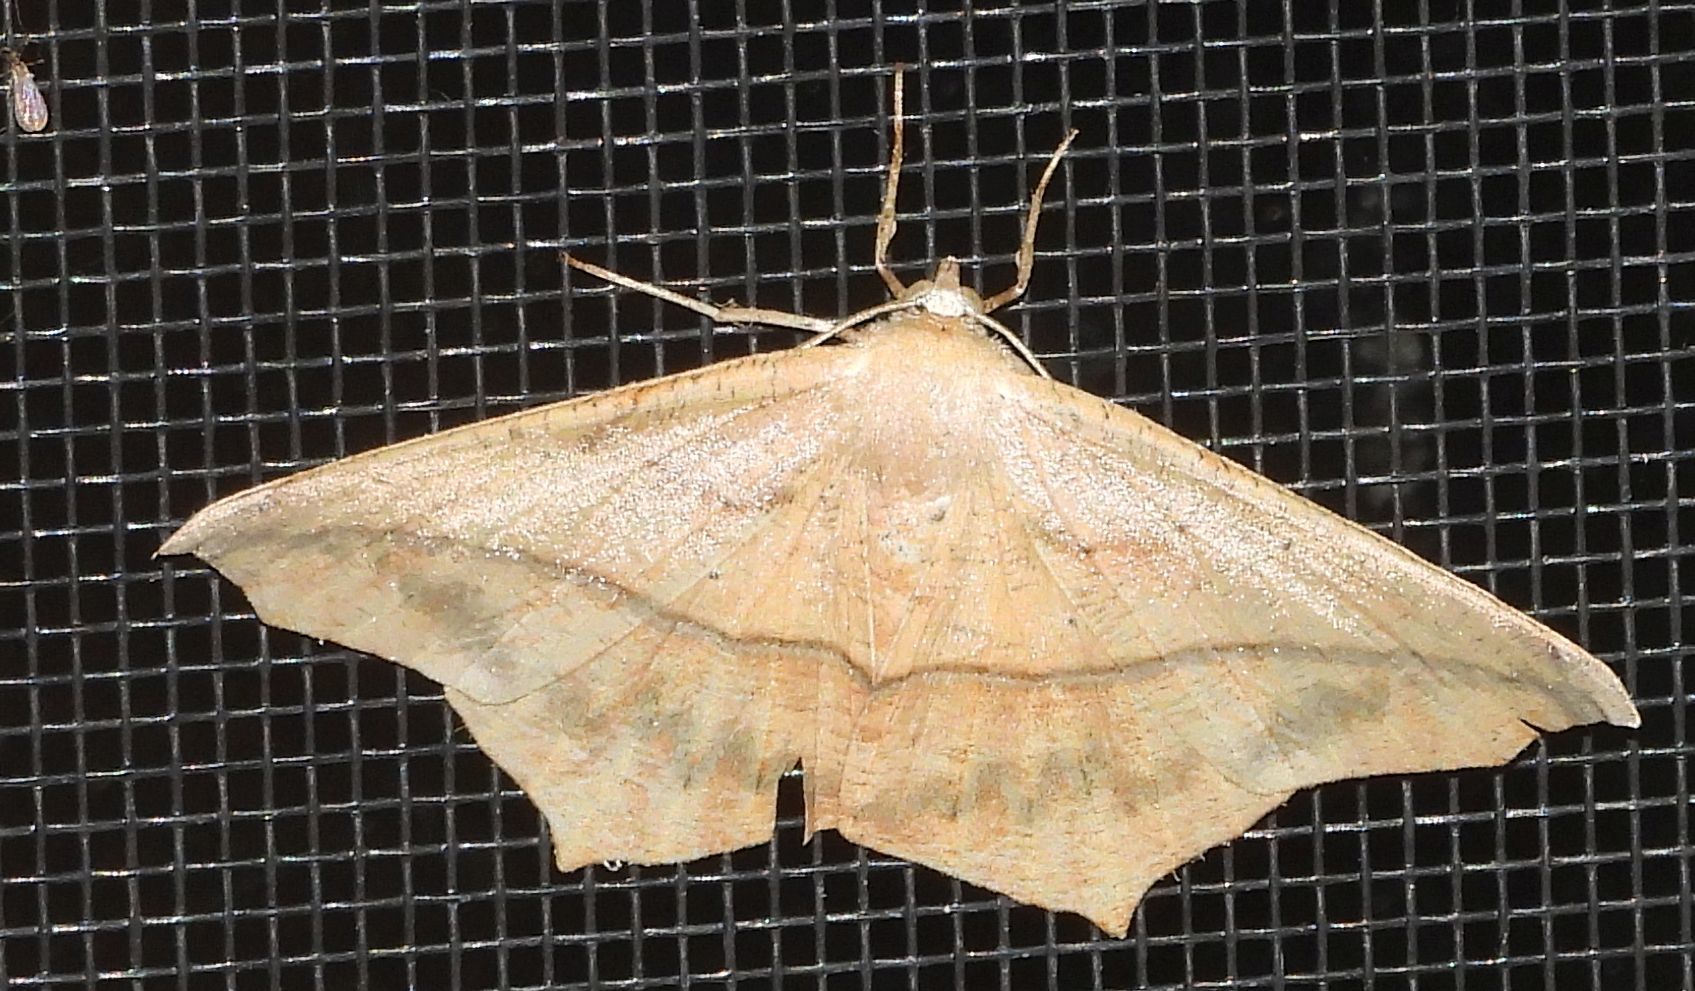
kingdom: Animalia
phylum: Arthropoda
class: Insecta
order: Lepidoptera
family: Geometridae
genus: Prochoerodes
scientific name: Prochoerodes lineola
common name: Large maple spanworm
